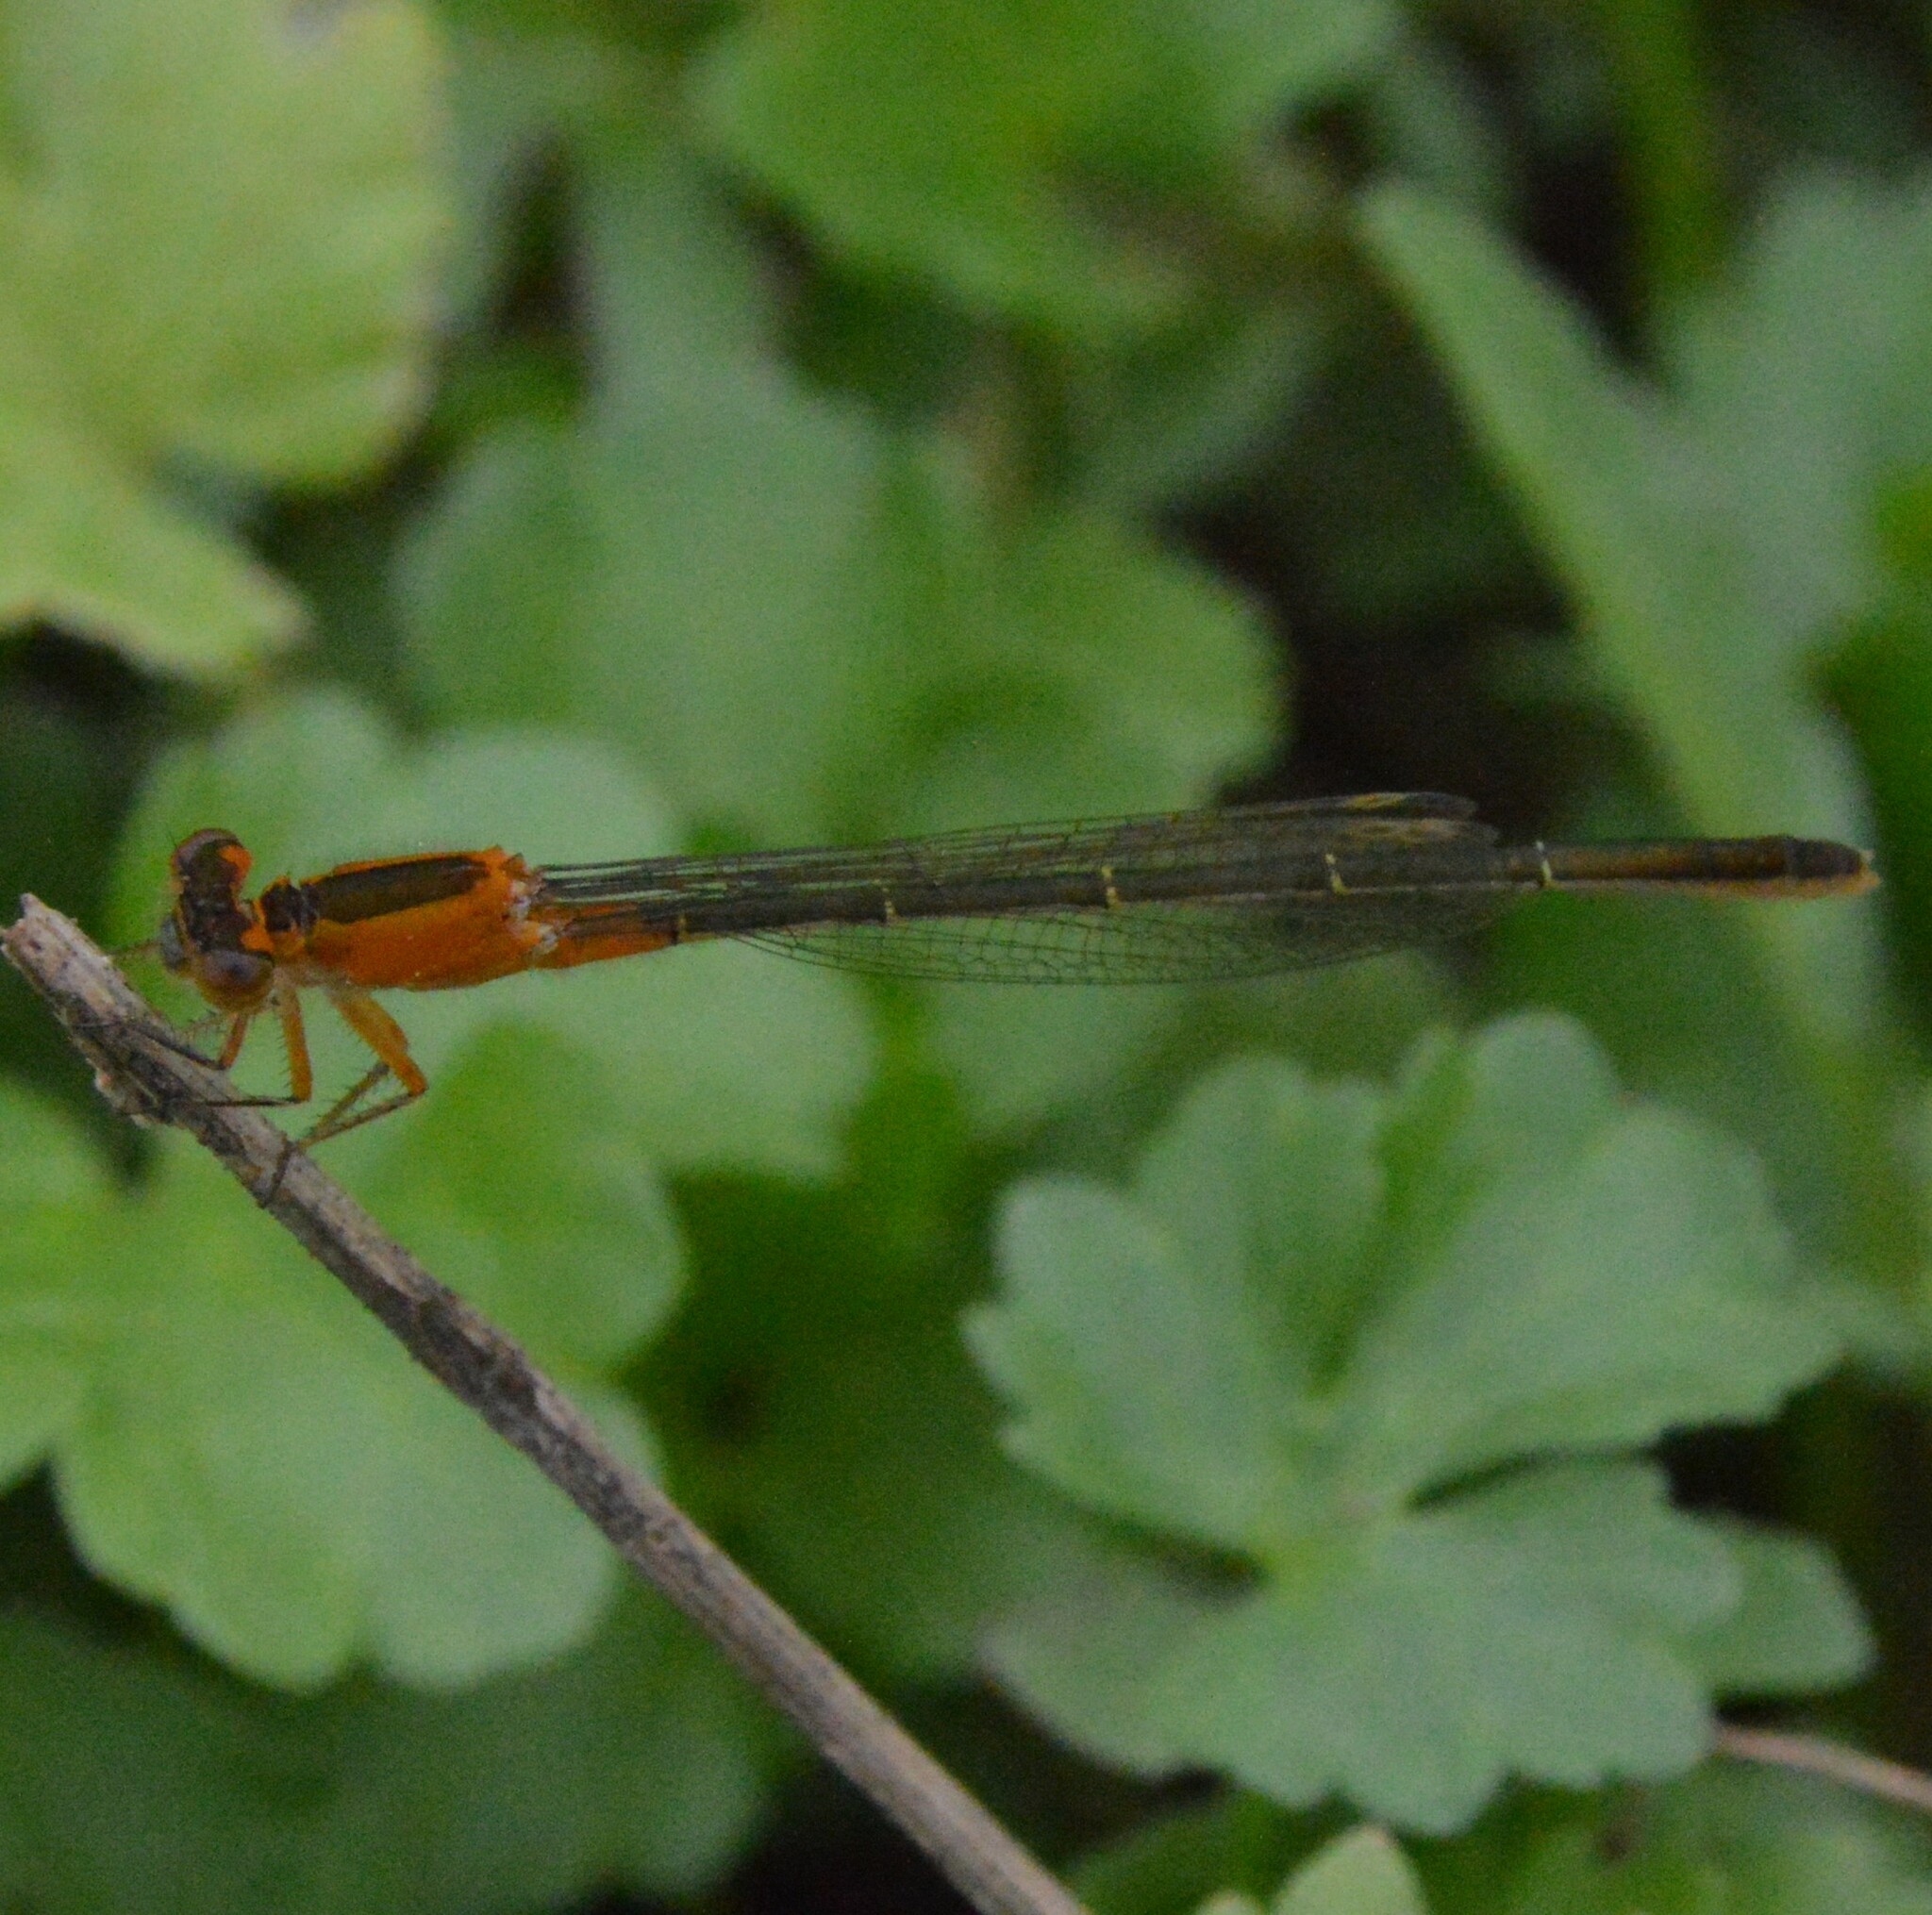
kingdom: Animalia
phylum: Arthropoda
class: Insecta
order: Odonata
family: Coenagrionidae
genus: Ischnura
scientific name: Ischnura ramburii
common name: Rambur's forktail
